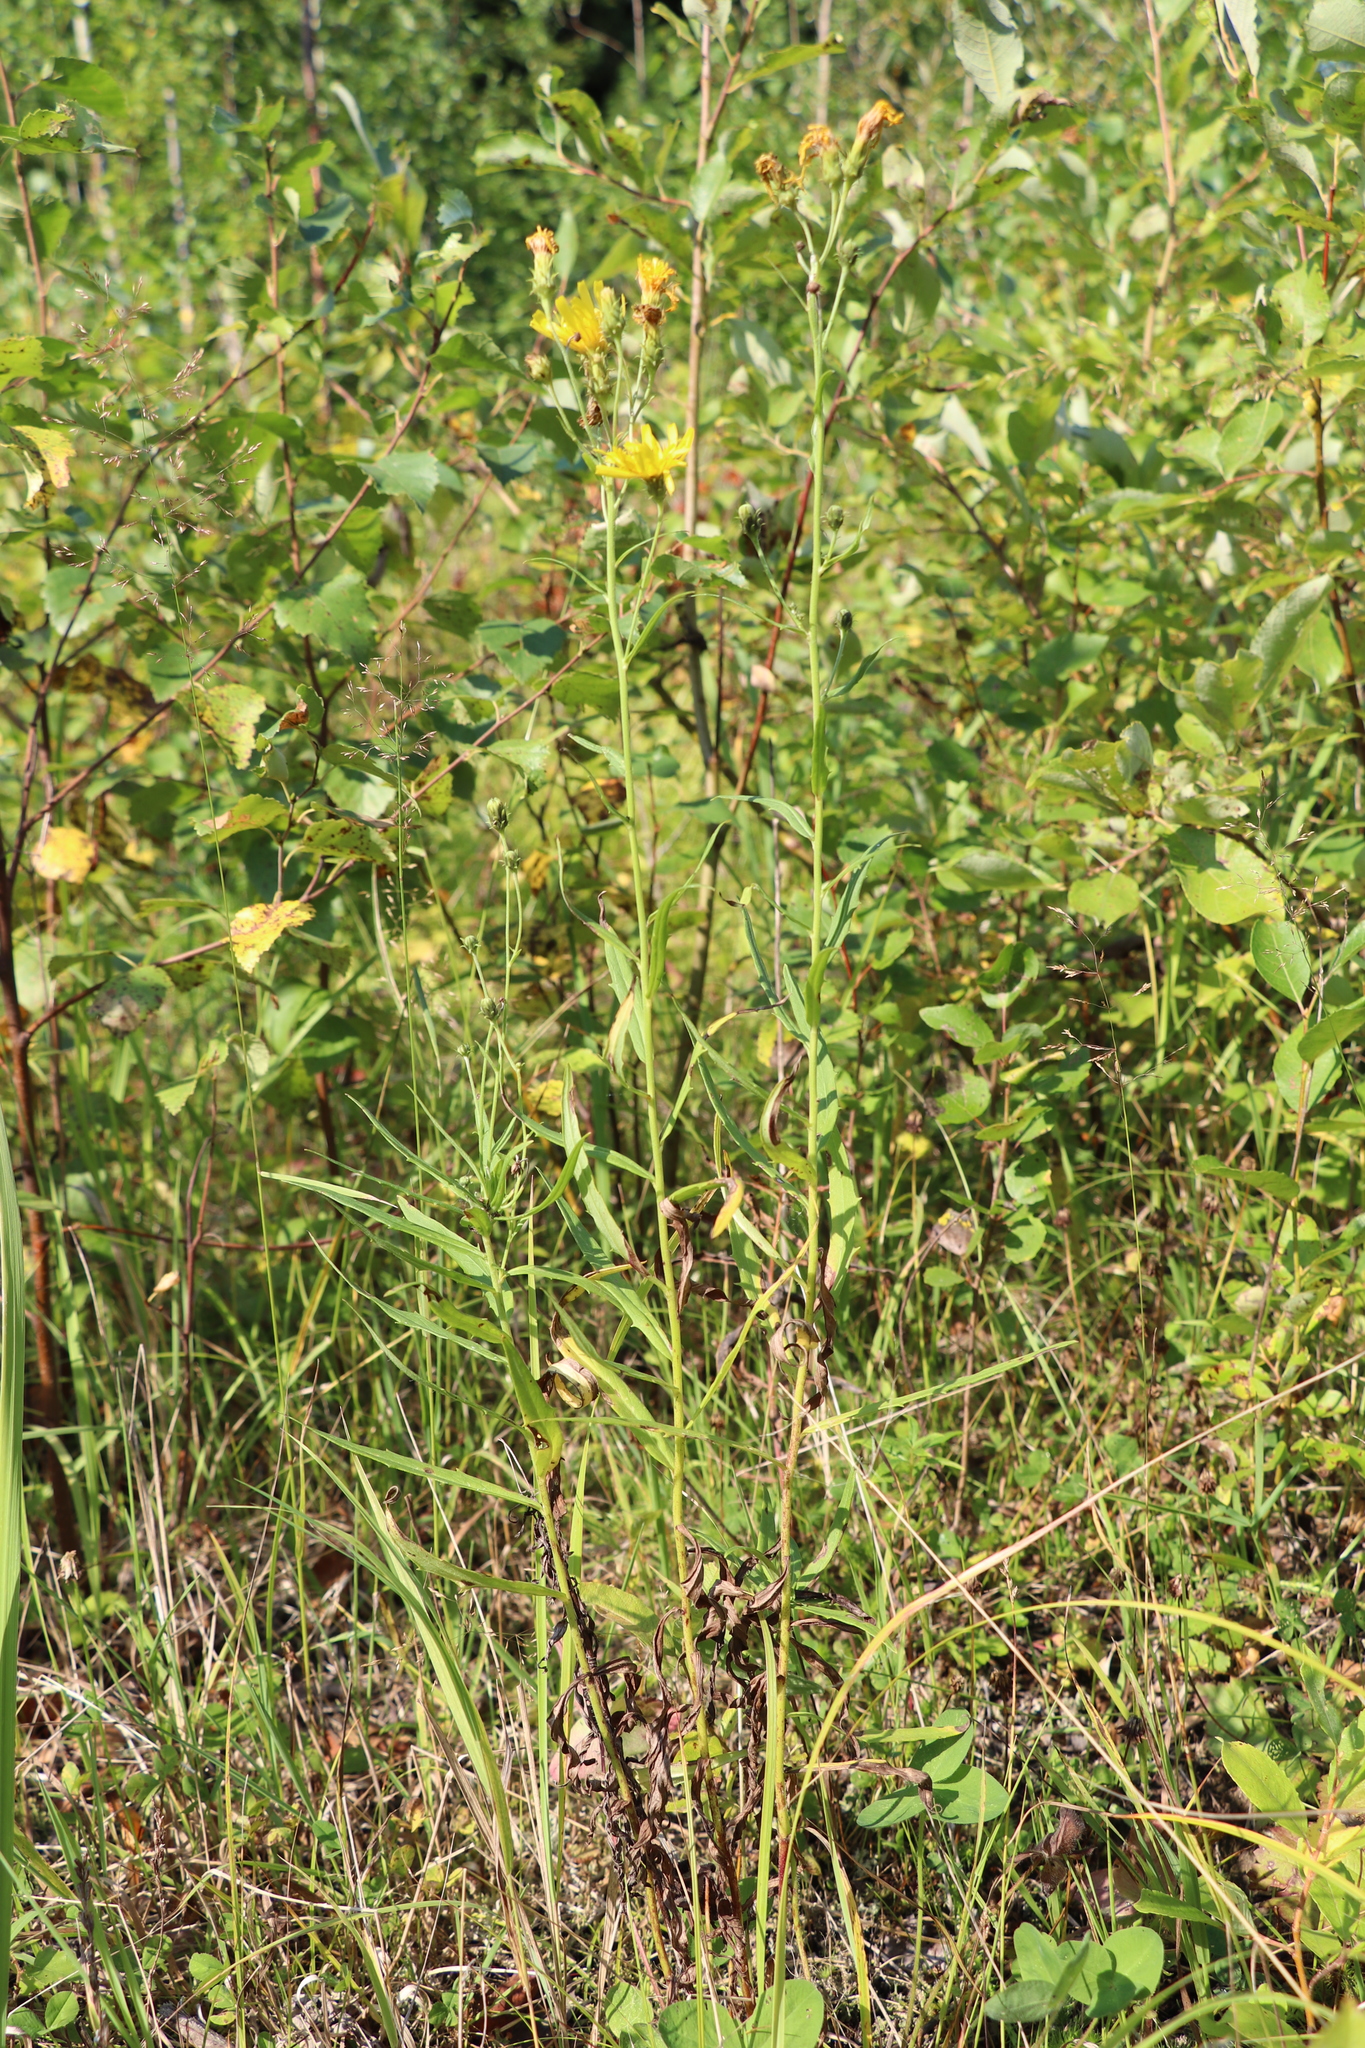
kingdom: Plantae
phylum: Tracheophyta
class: Magnoliopsida
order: Asterales
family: Asteraceae
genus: Hieracium
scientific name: Hieracium umbellatum
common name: Northern hawkweed
